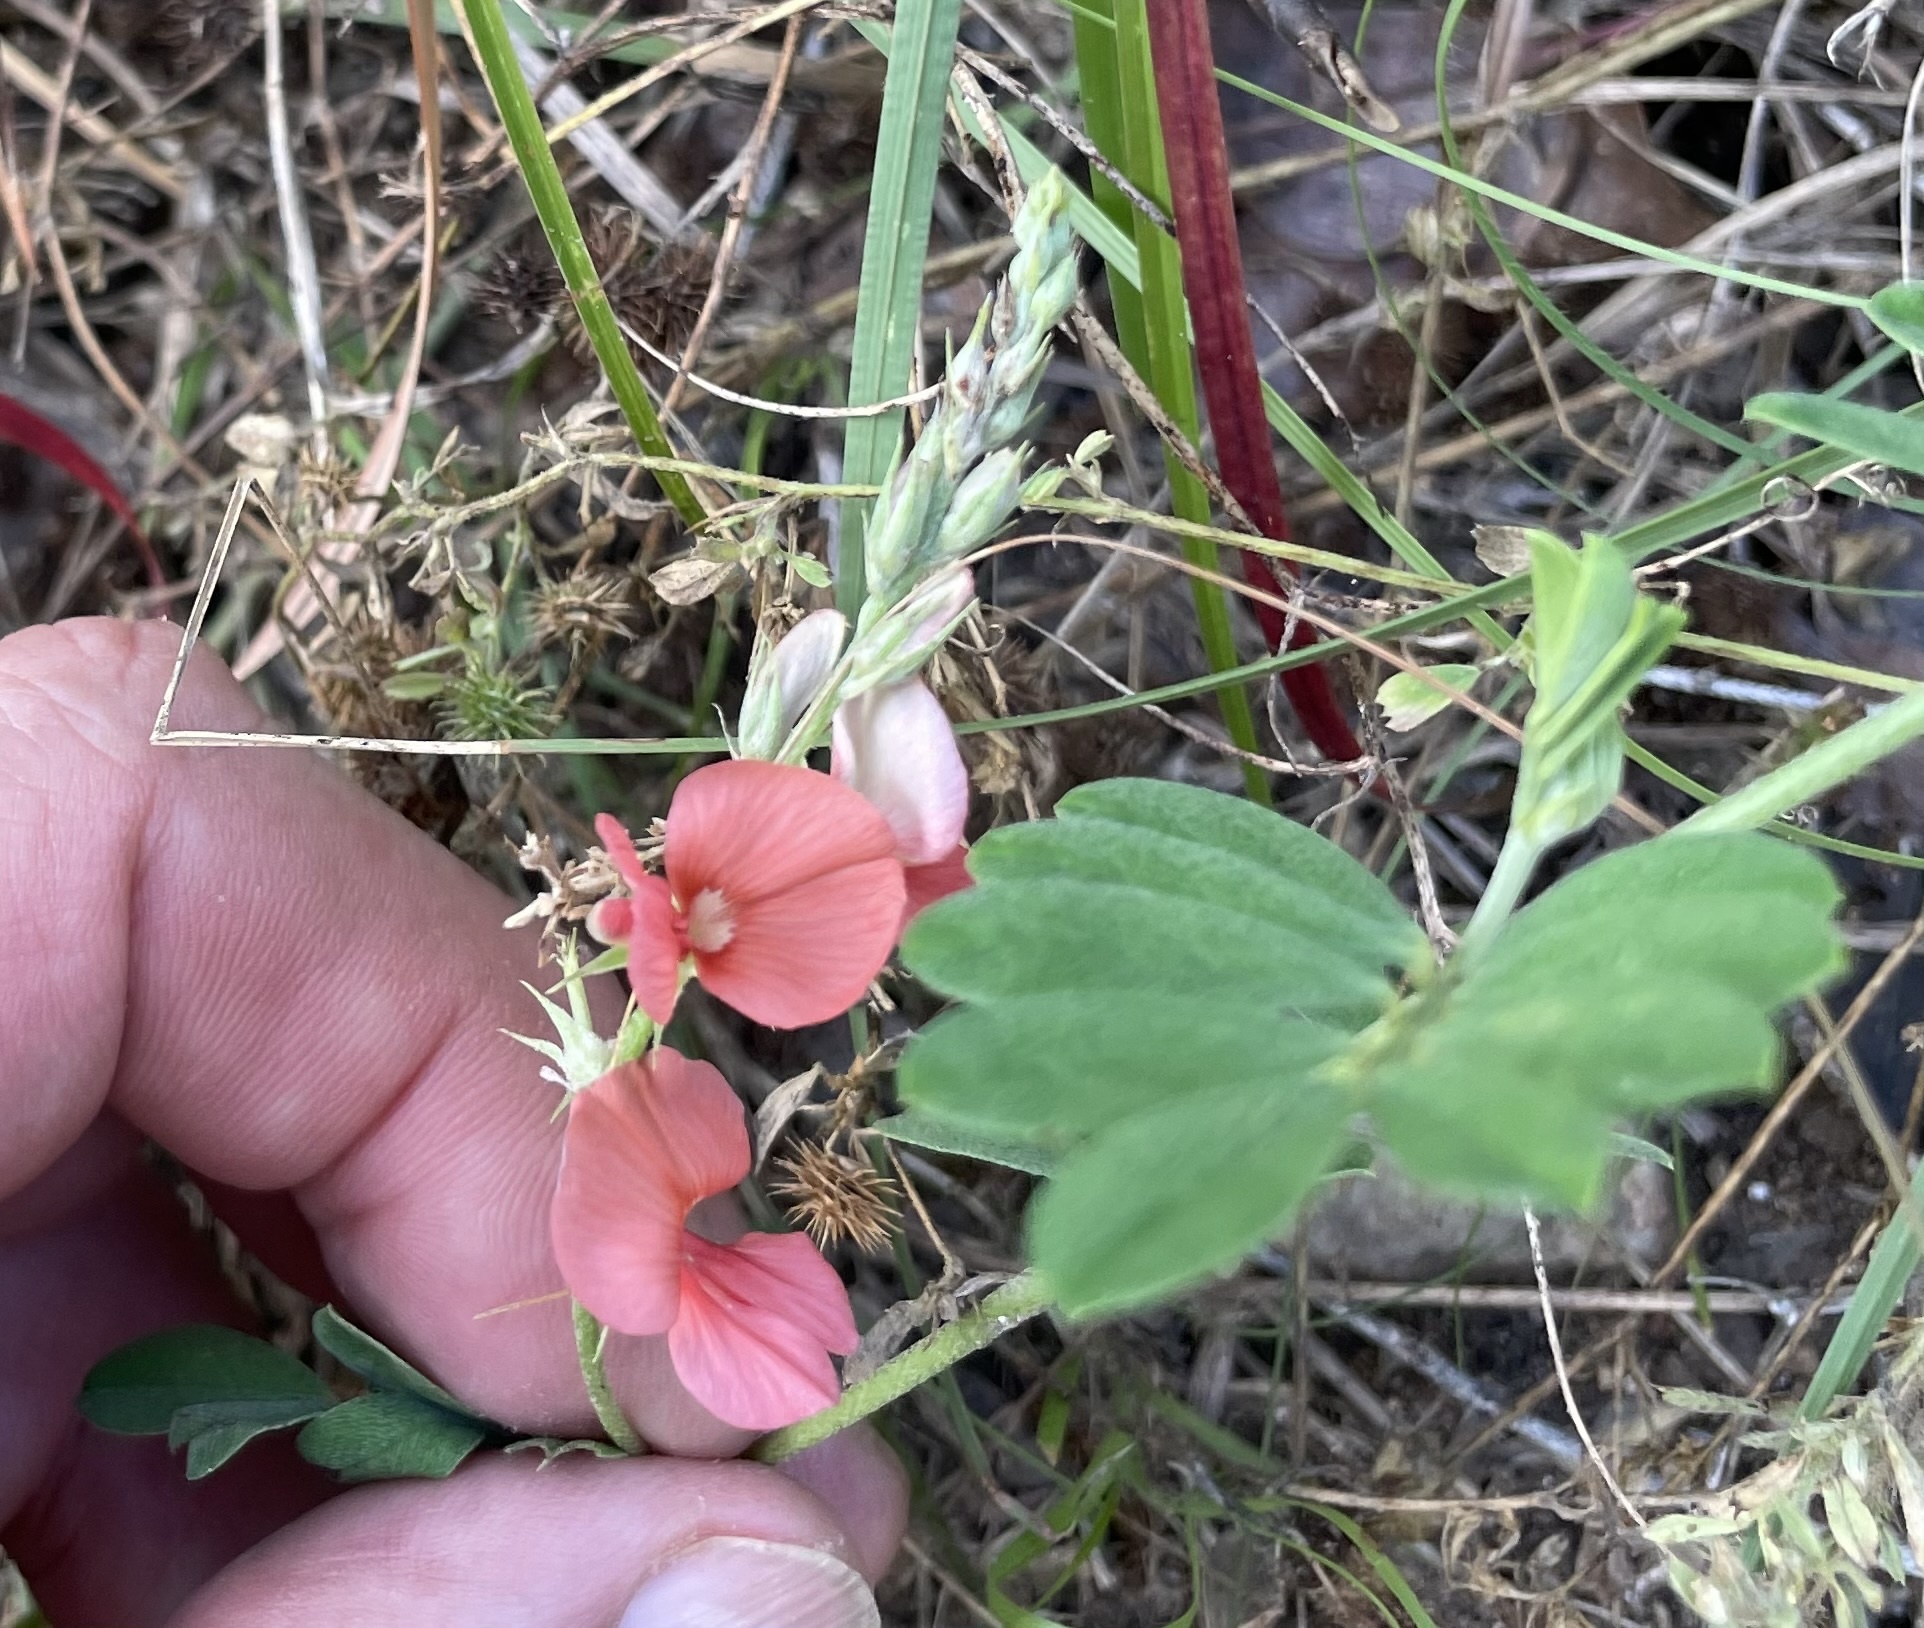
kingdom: Plantae
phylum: Tracheophyta
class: Magnoliopsida
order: Fabales
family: Fabaceae
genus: Indigofera
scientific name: Indigofera miniata
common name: Coast indigo
